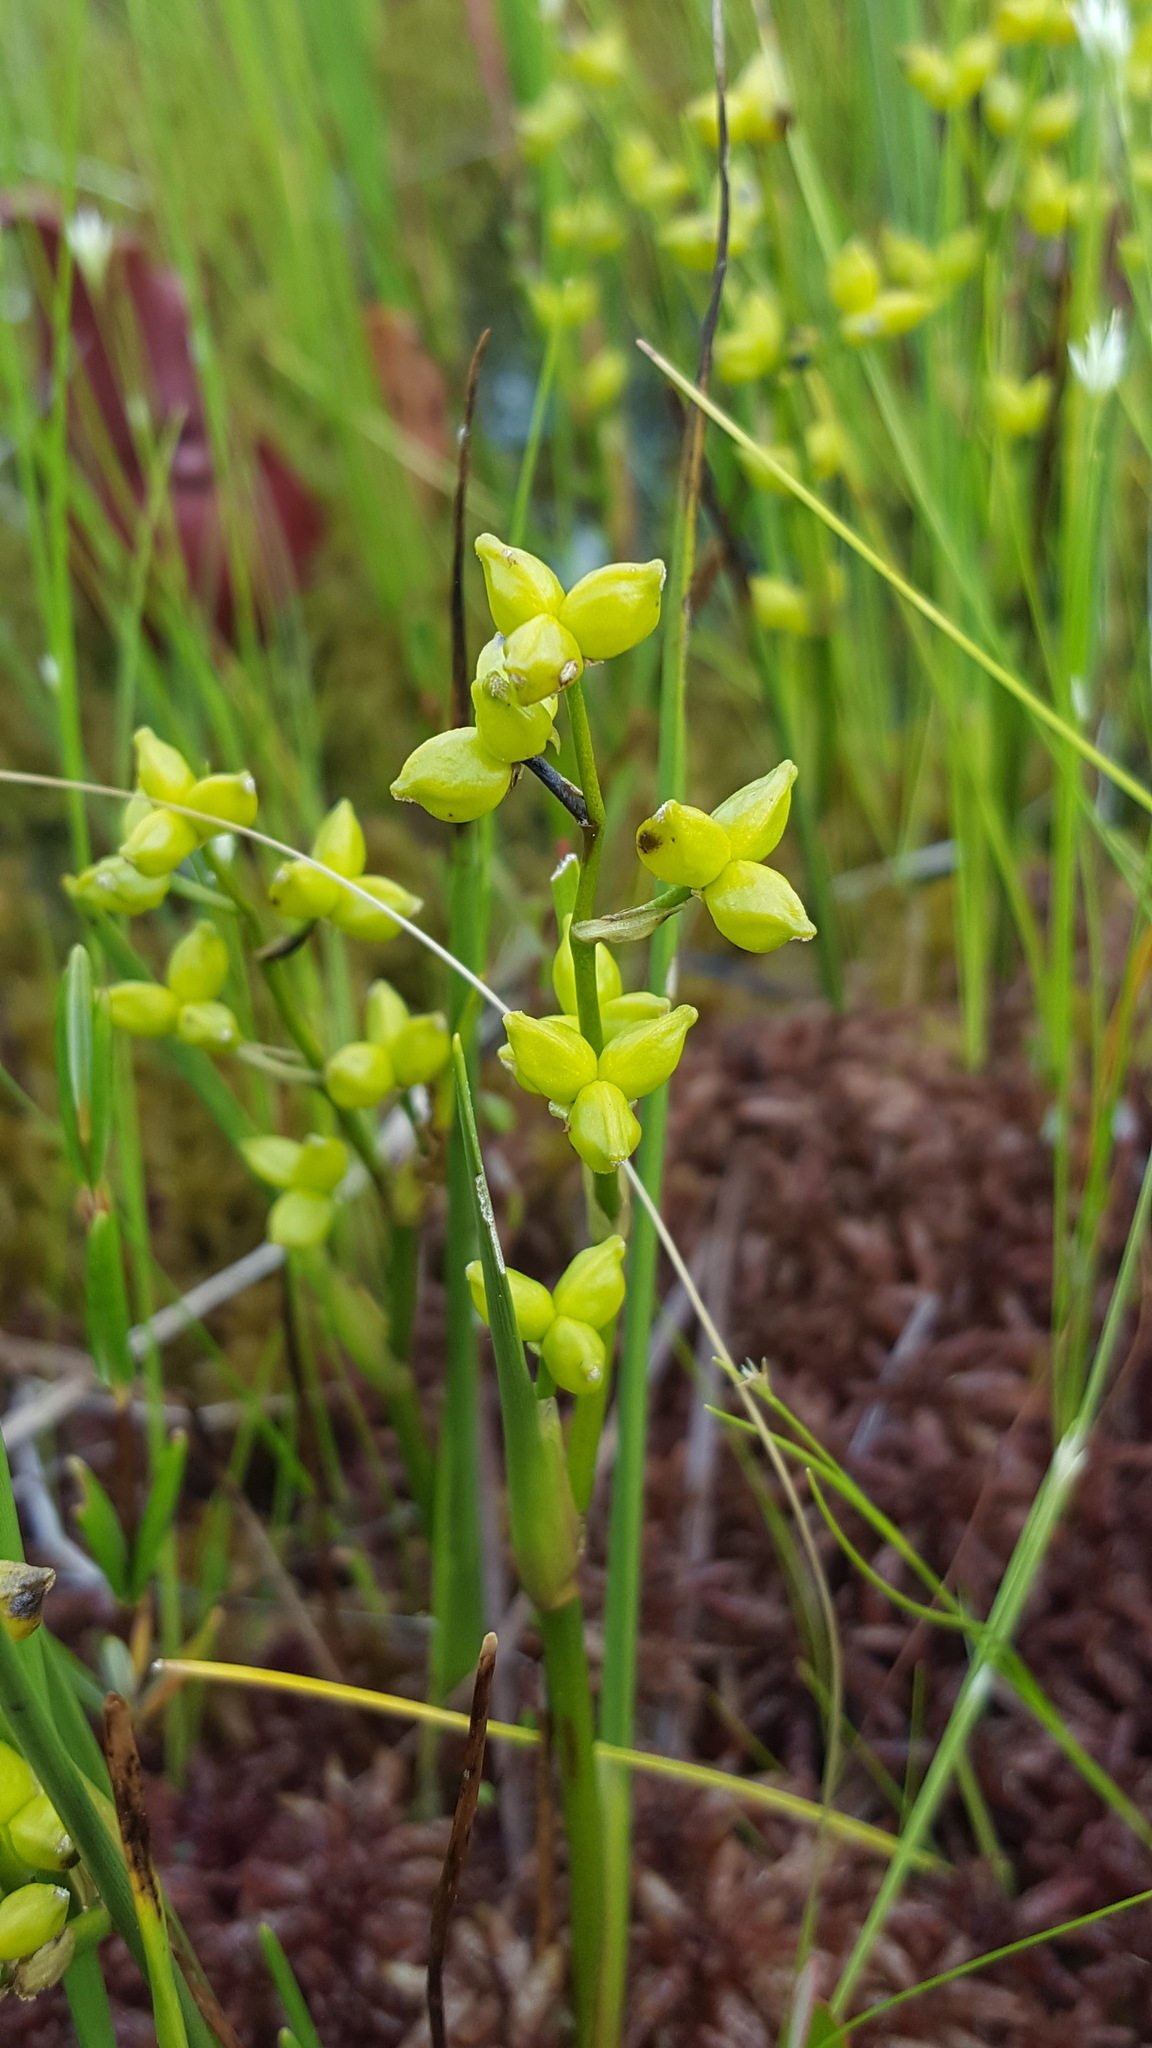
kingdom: Plantae
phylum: Tracheophyta
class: Liliopsida
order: Alismatales
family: Scheuchzeriaceae
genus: Scheuchzeria
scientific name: Scheuchzeria palustris
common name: Rannoch-rush
